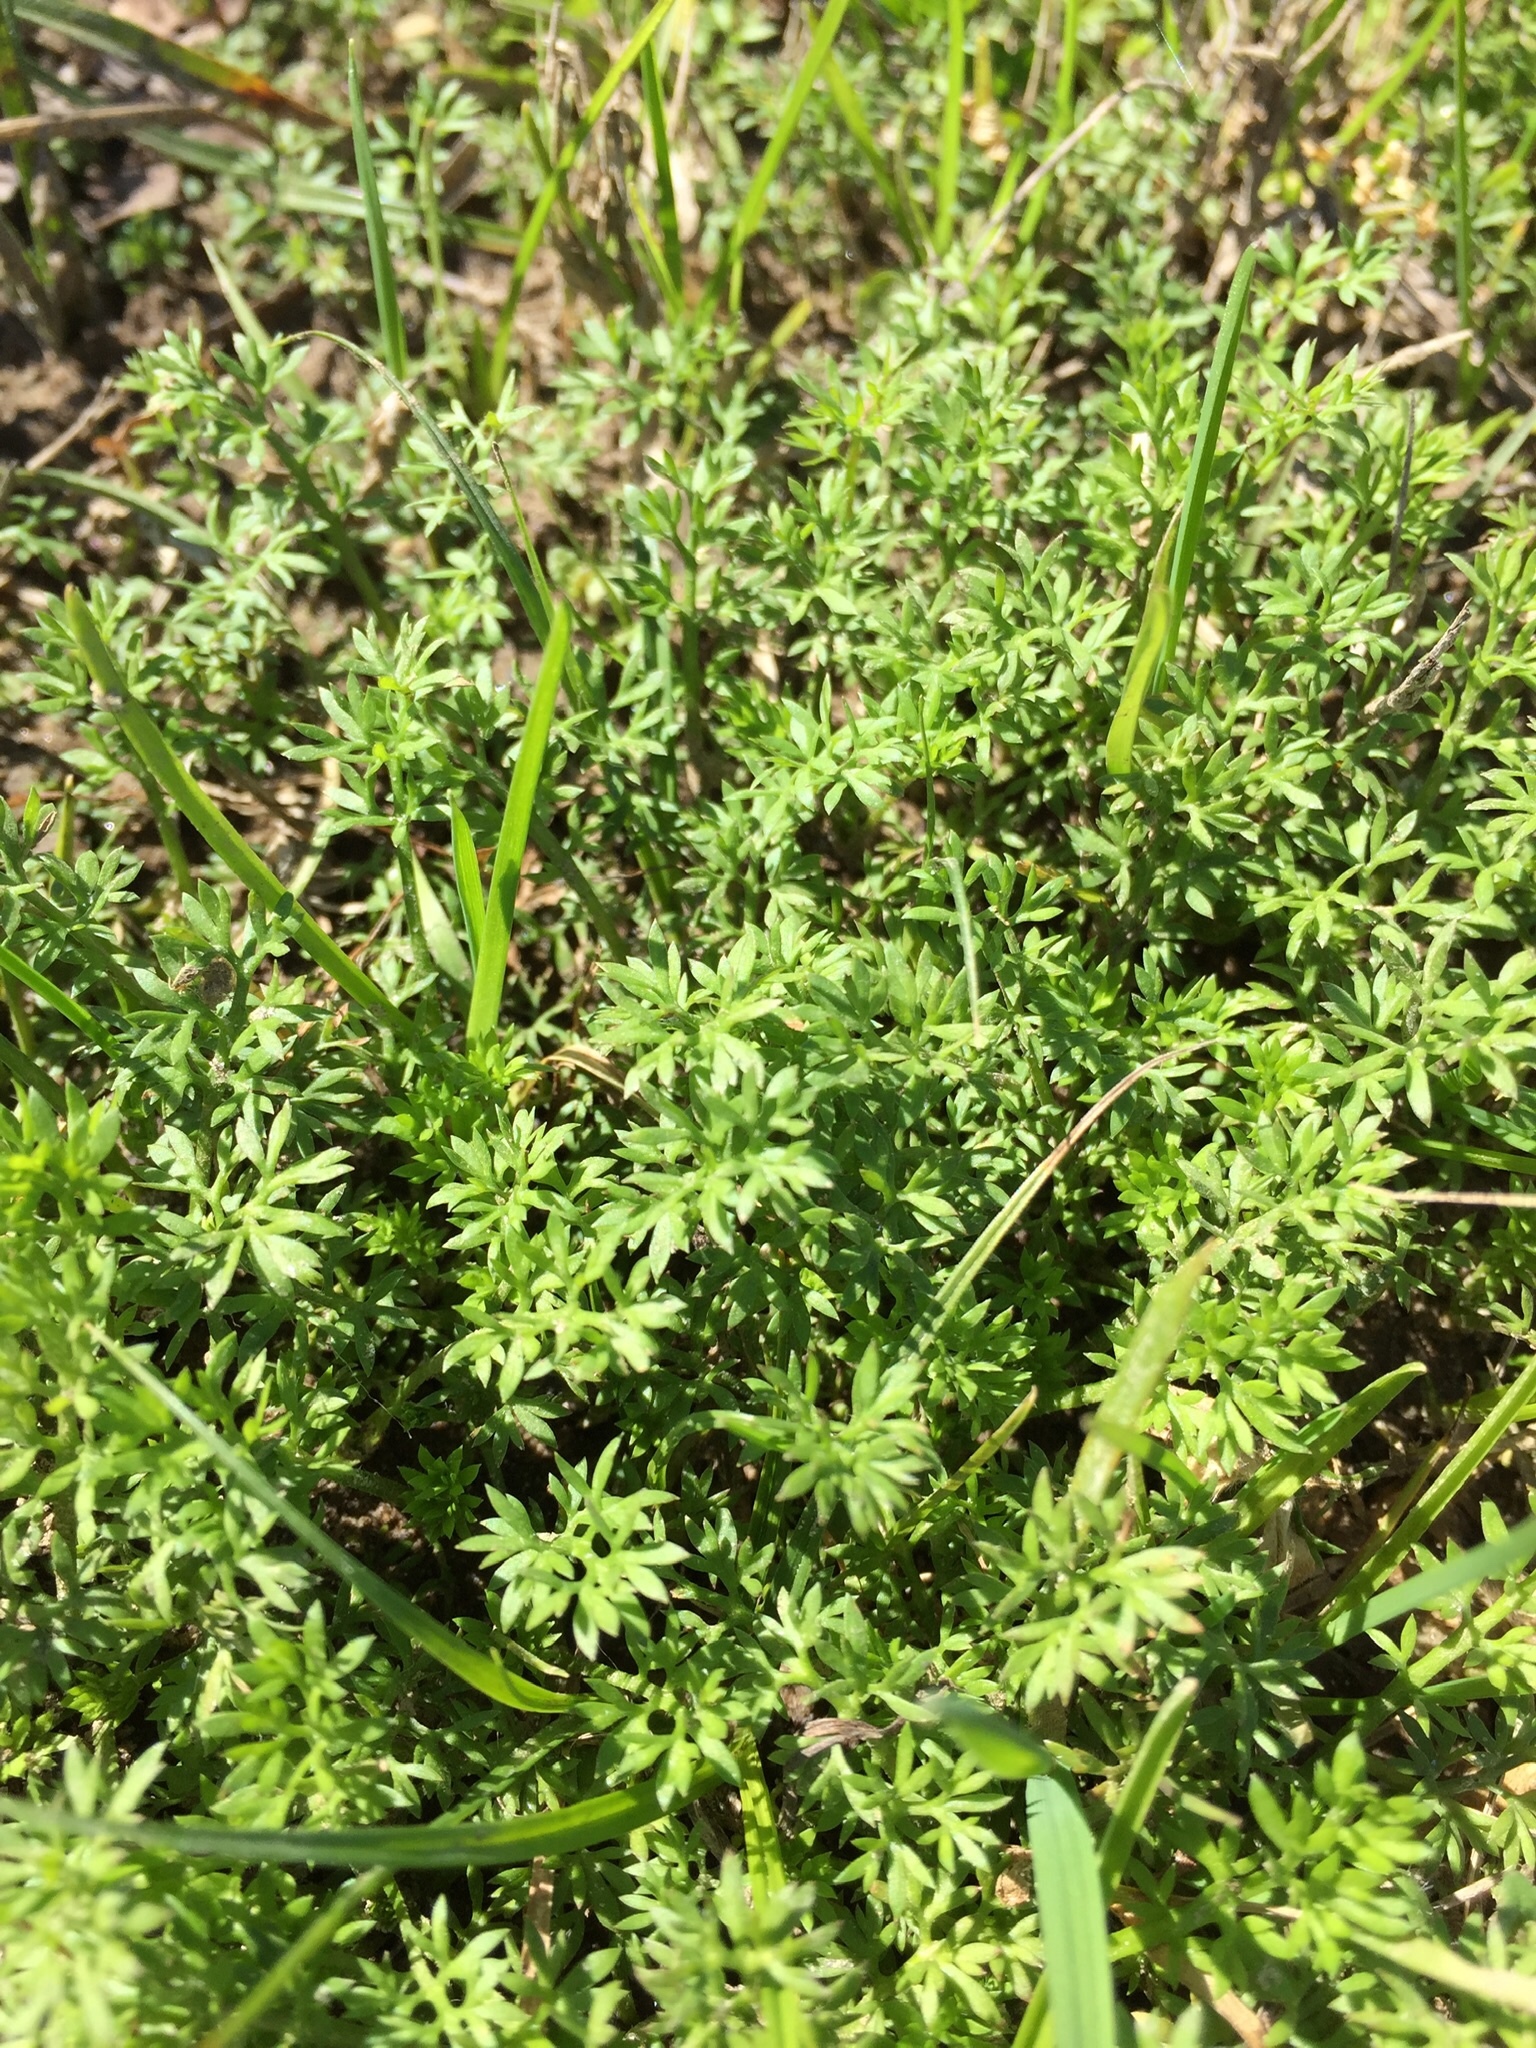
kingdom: Plantae
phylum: Tracheophyta
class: Magnoliopsida
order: Asterales
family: Asteraceae
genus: Soliva
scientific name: Soliva sessilis
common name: Field burrweed
